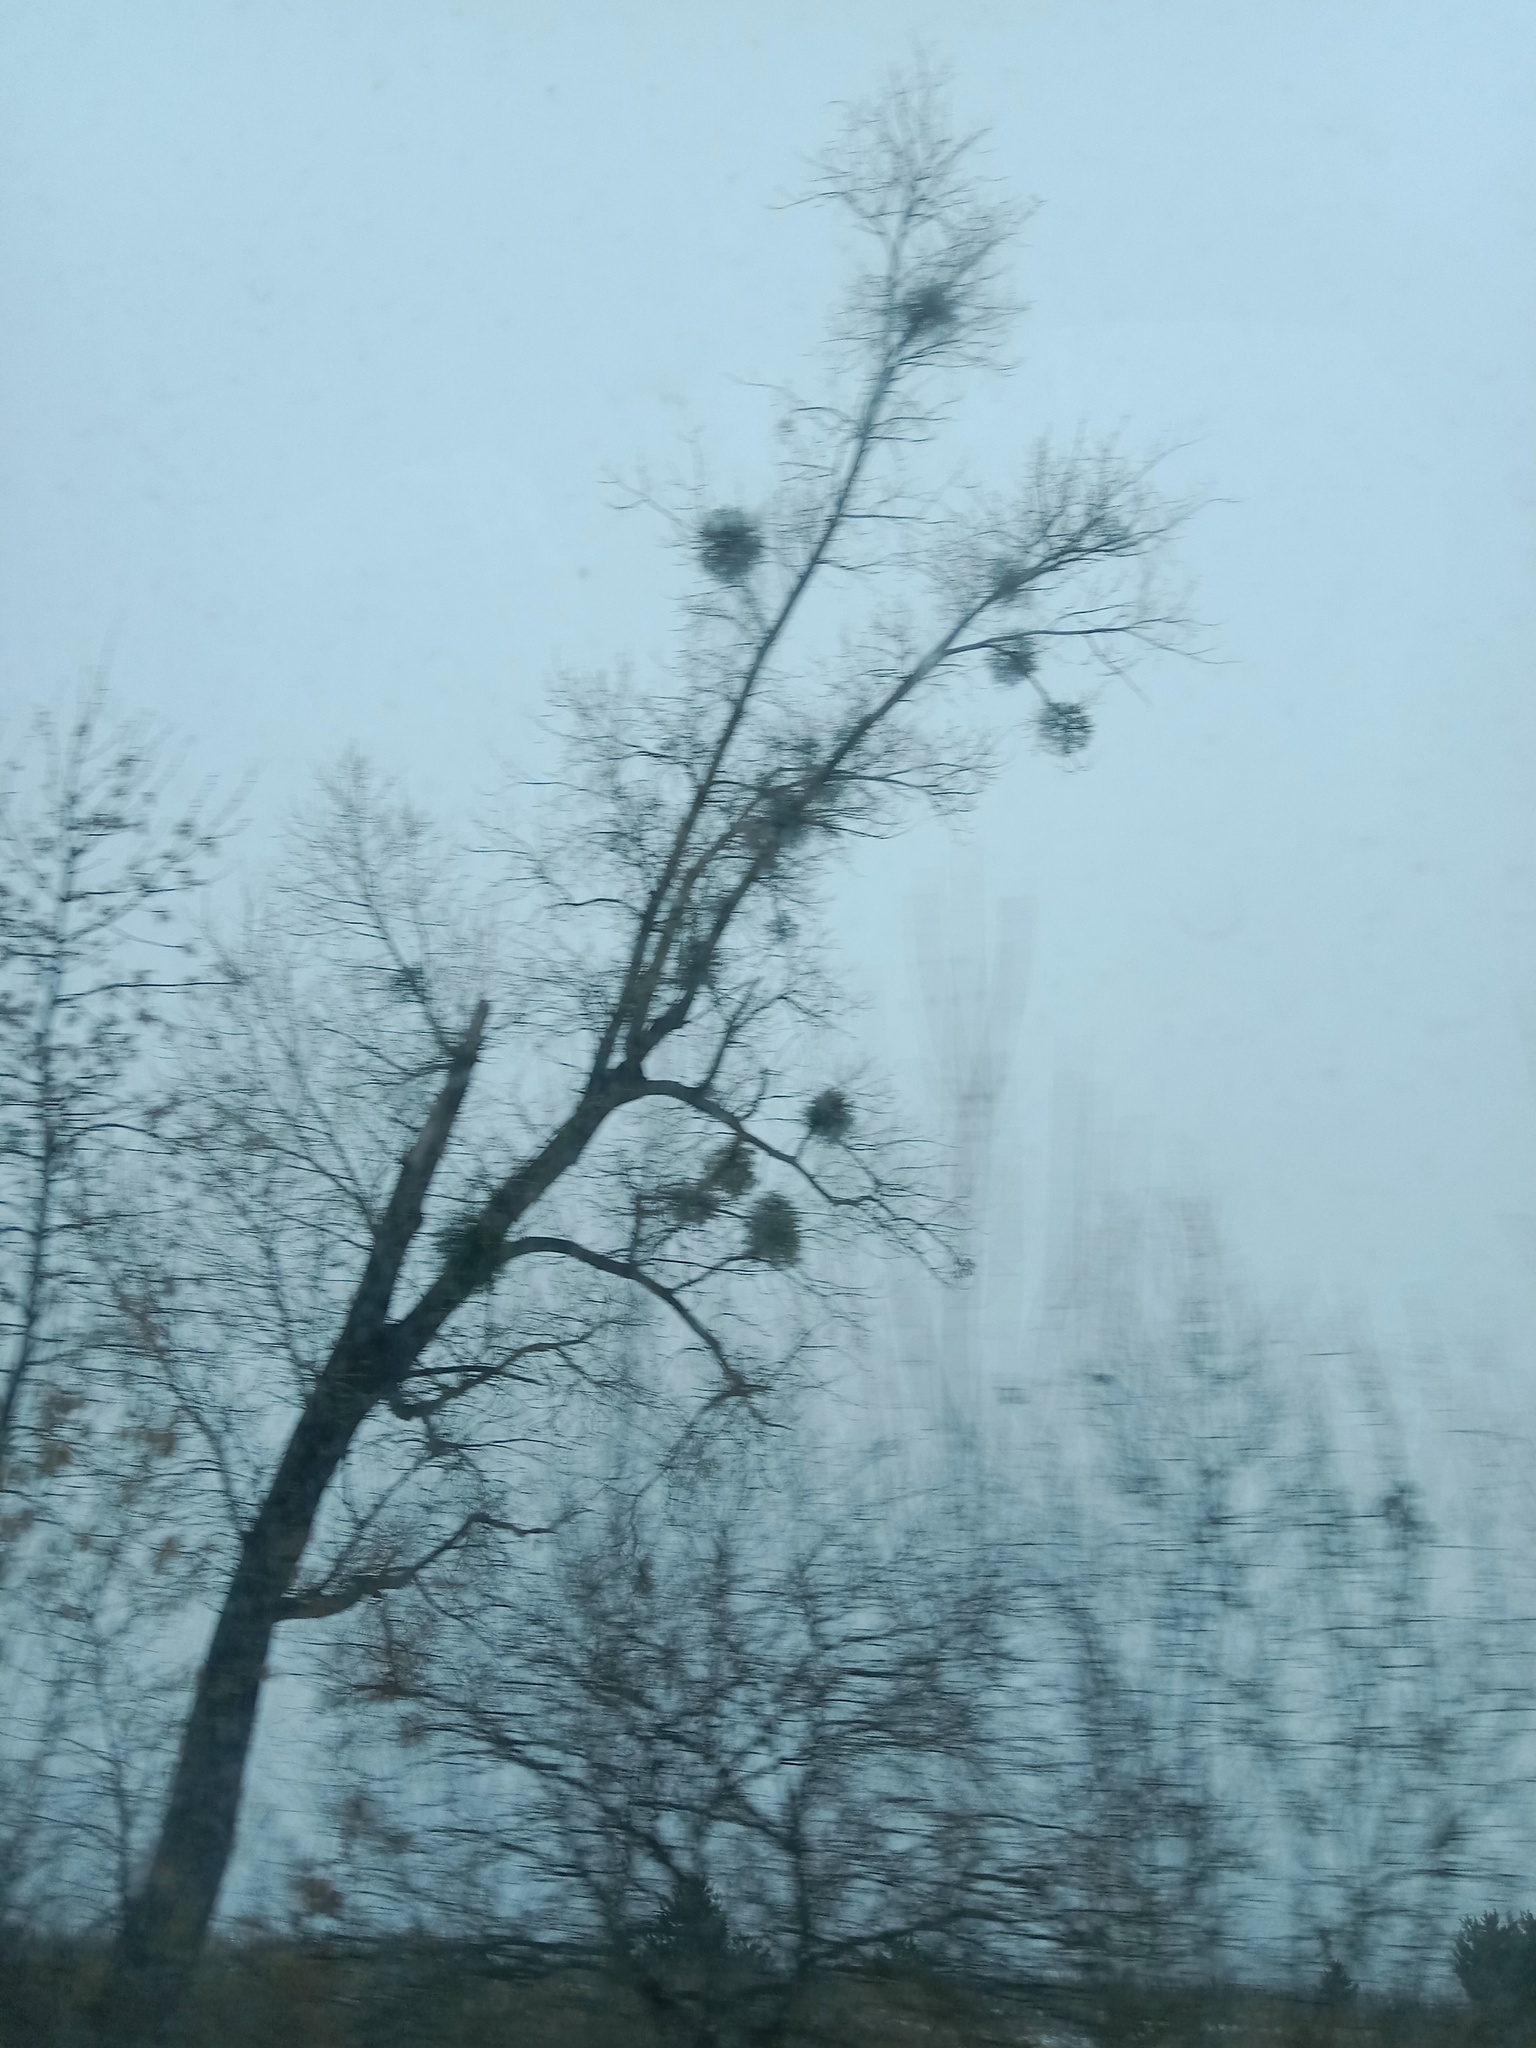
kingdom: Plantae
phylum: Tracheophyta
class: Magnoliopsida
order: Santalales
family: Viscaceae
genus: Viscum
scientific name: Viscum album
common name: Mistletoe
